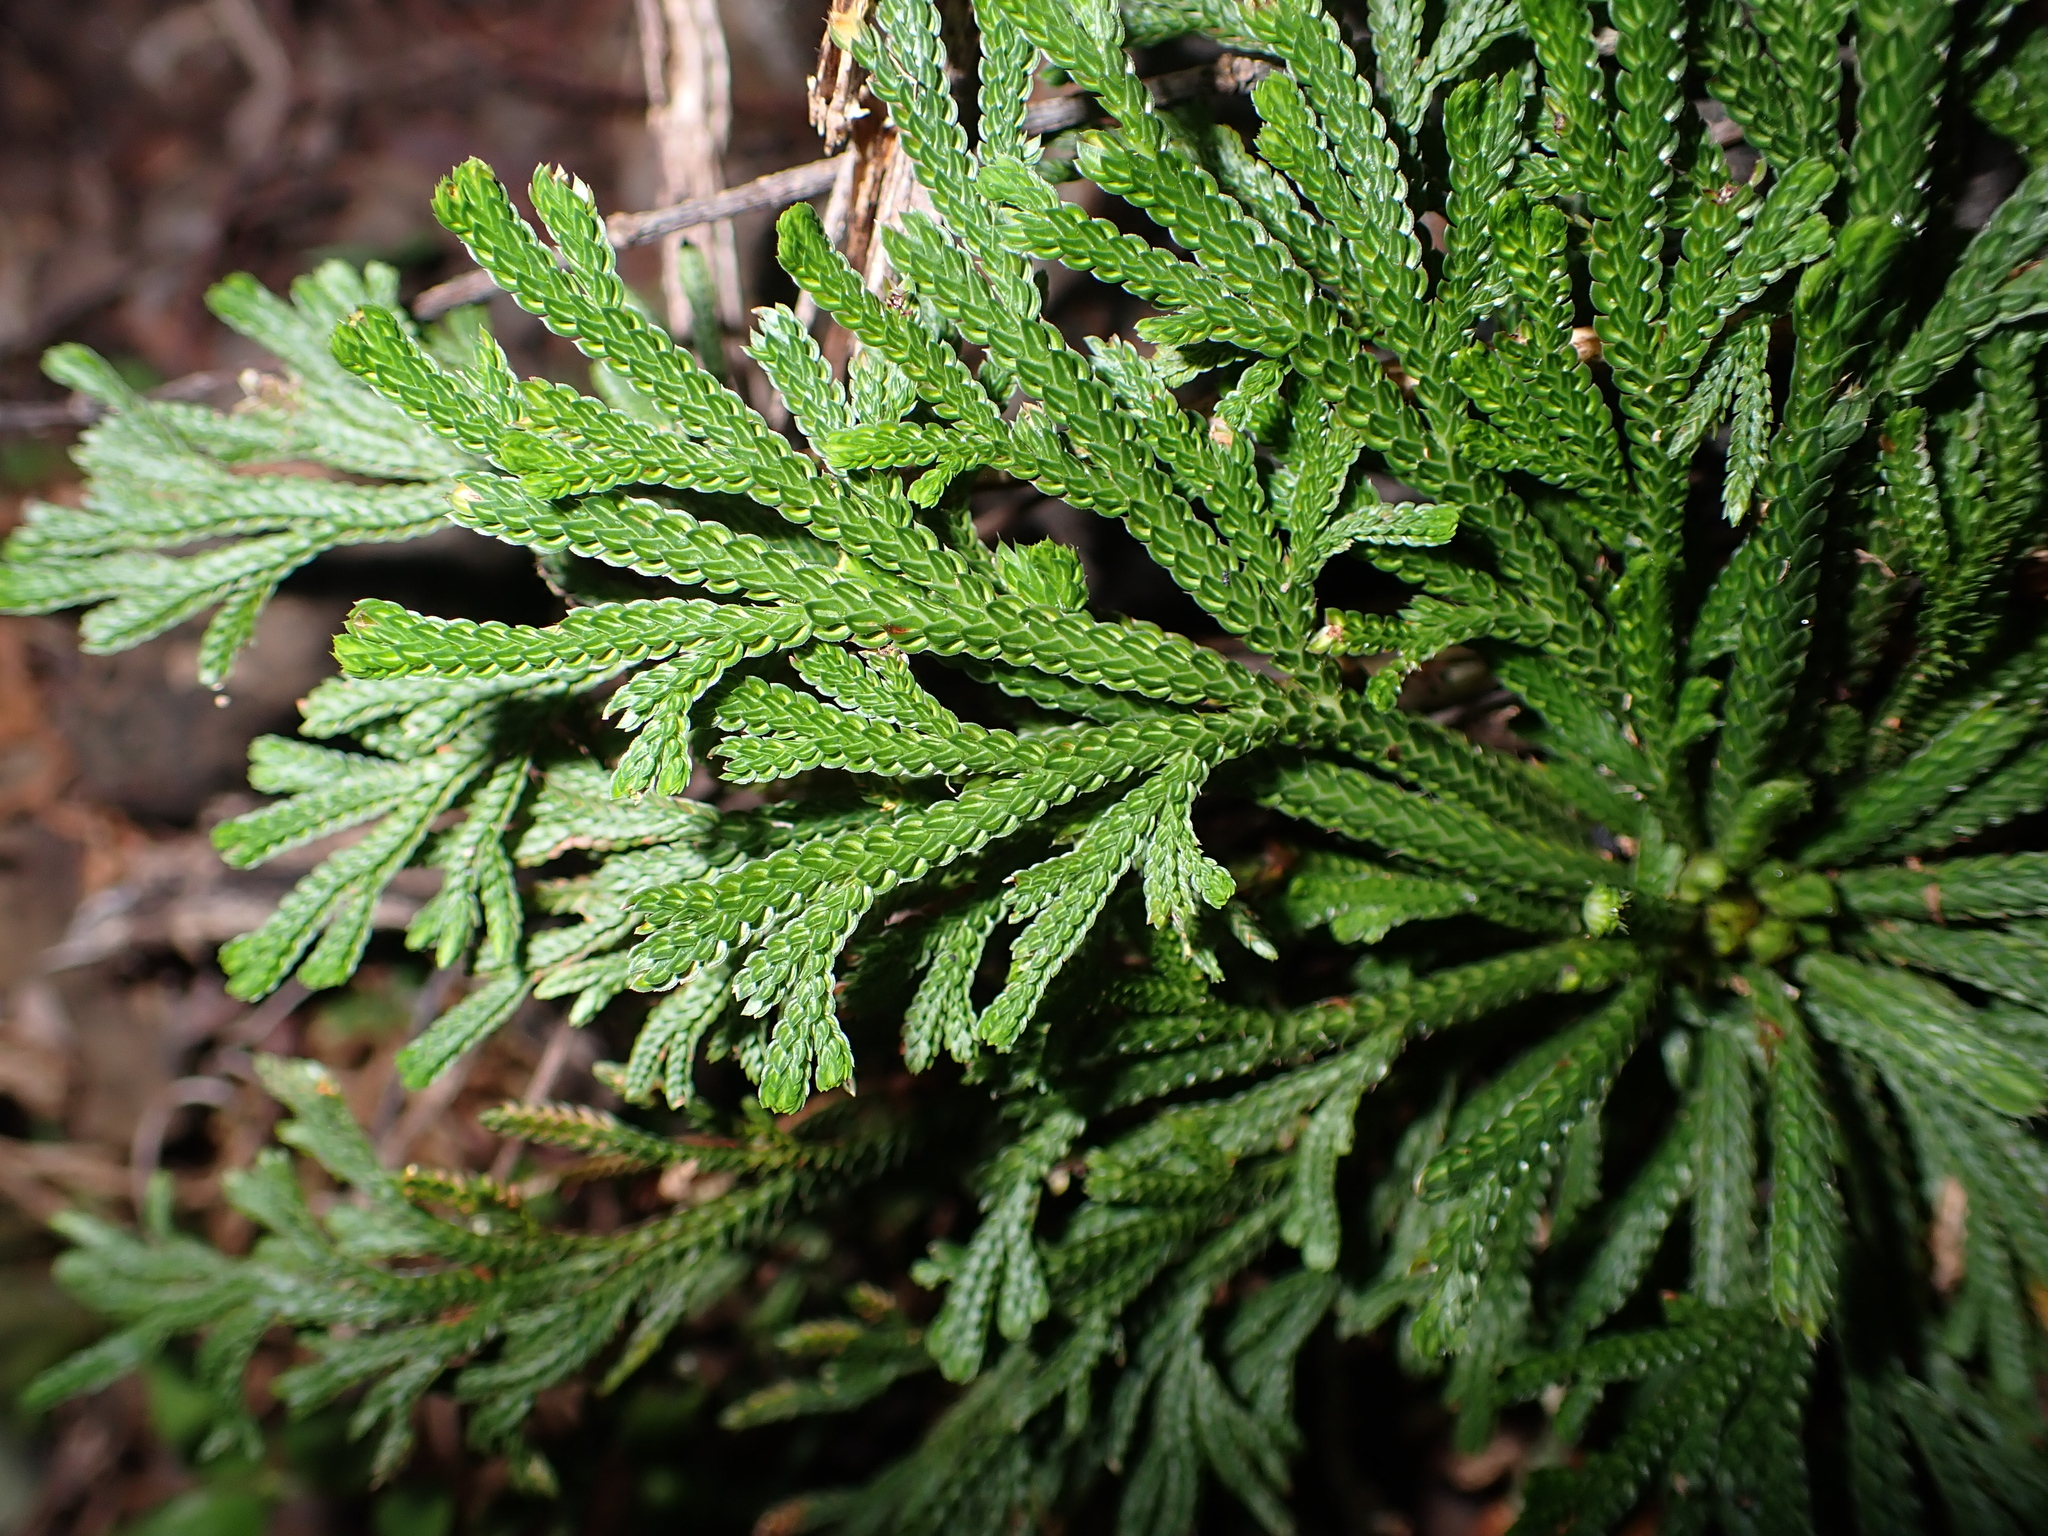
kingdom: Plantae
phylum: Tracheophyta
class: Lycopodiopsida
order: Selaginellales
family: Selaginellaceae
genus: Selaginella
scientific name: Selaginella tamariscina
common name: Little-club-moss
